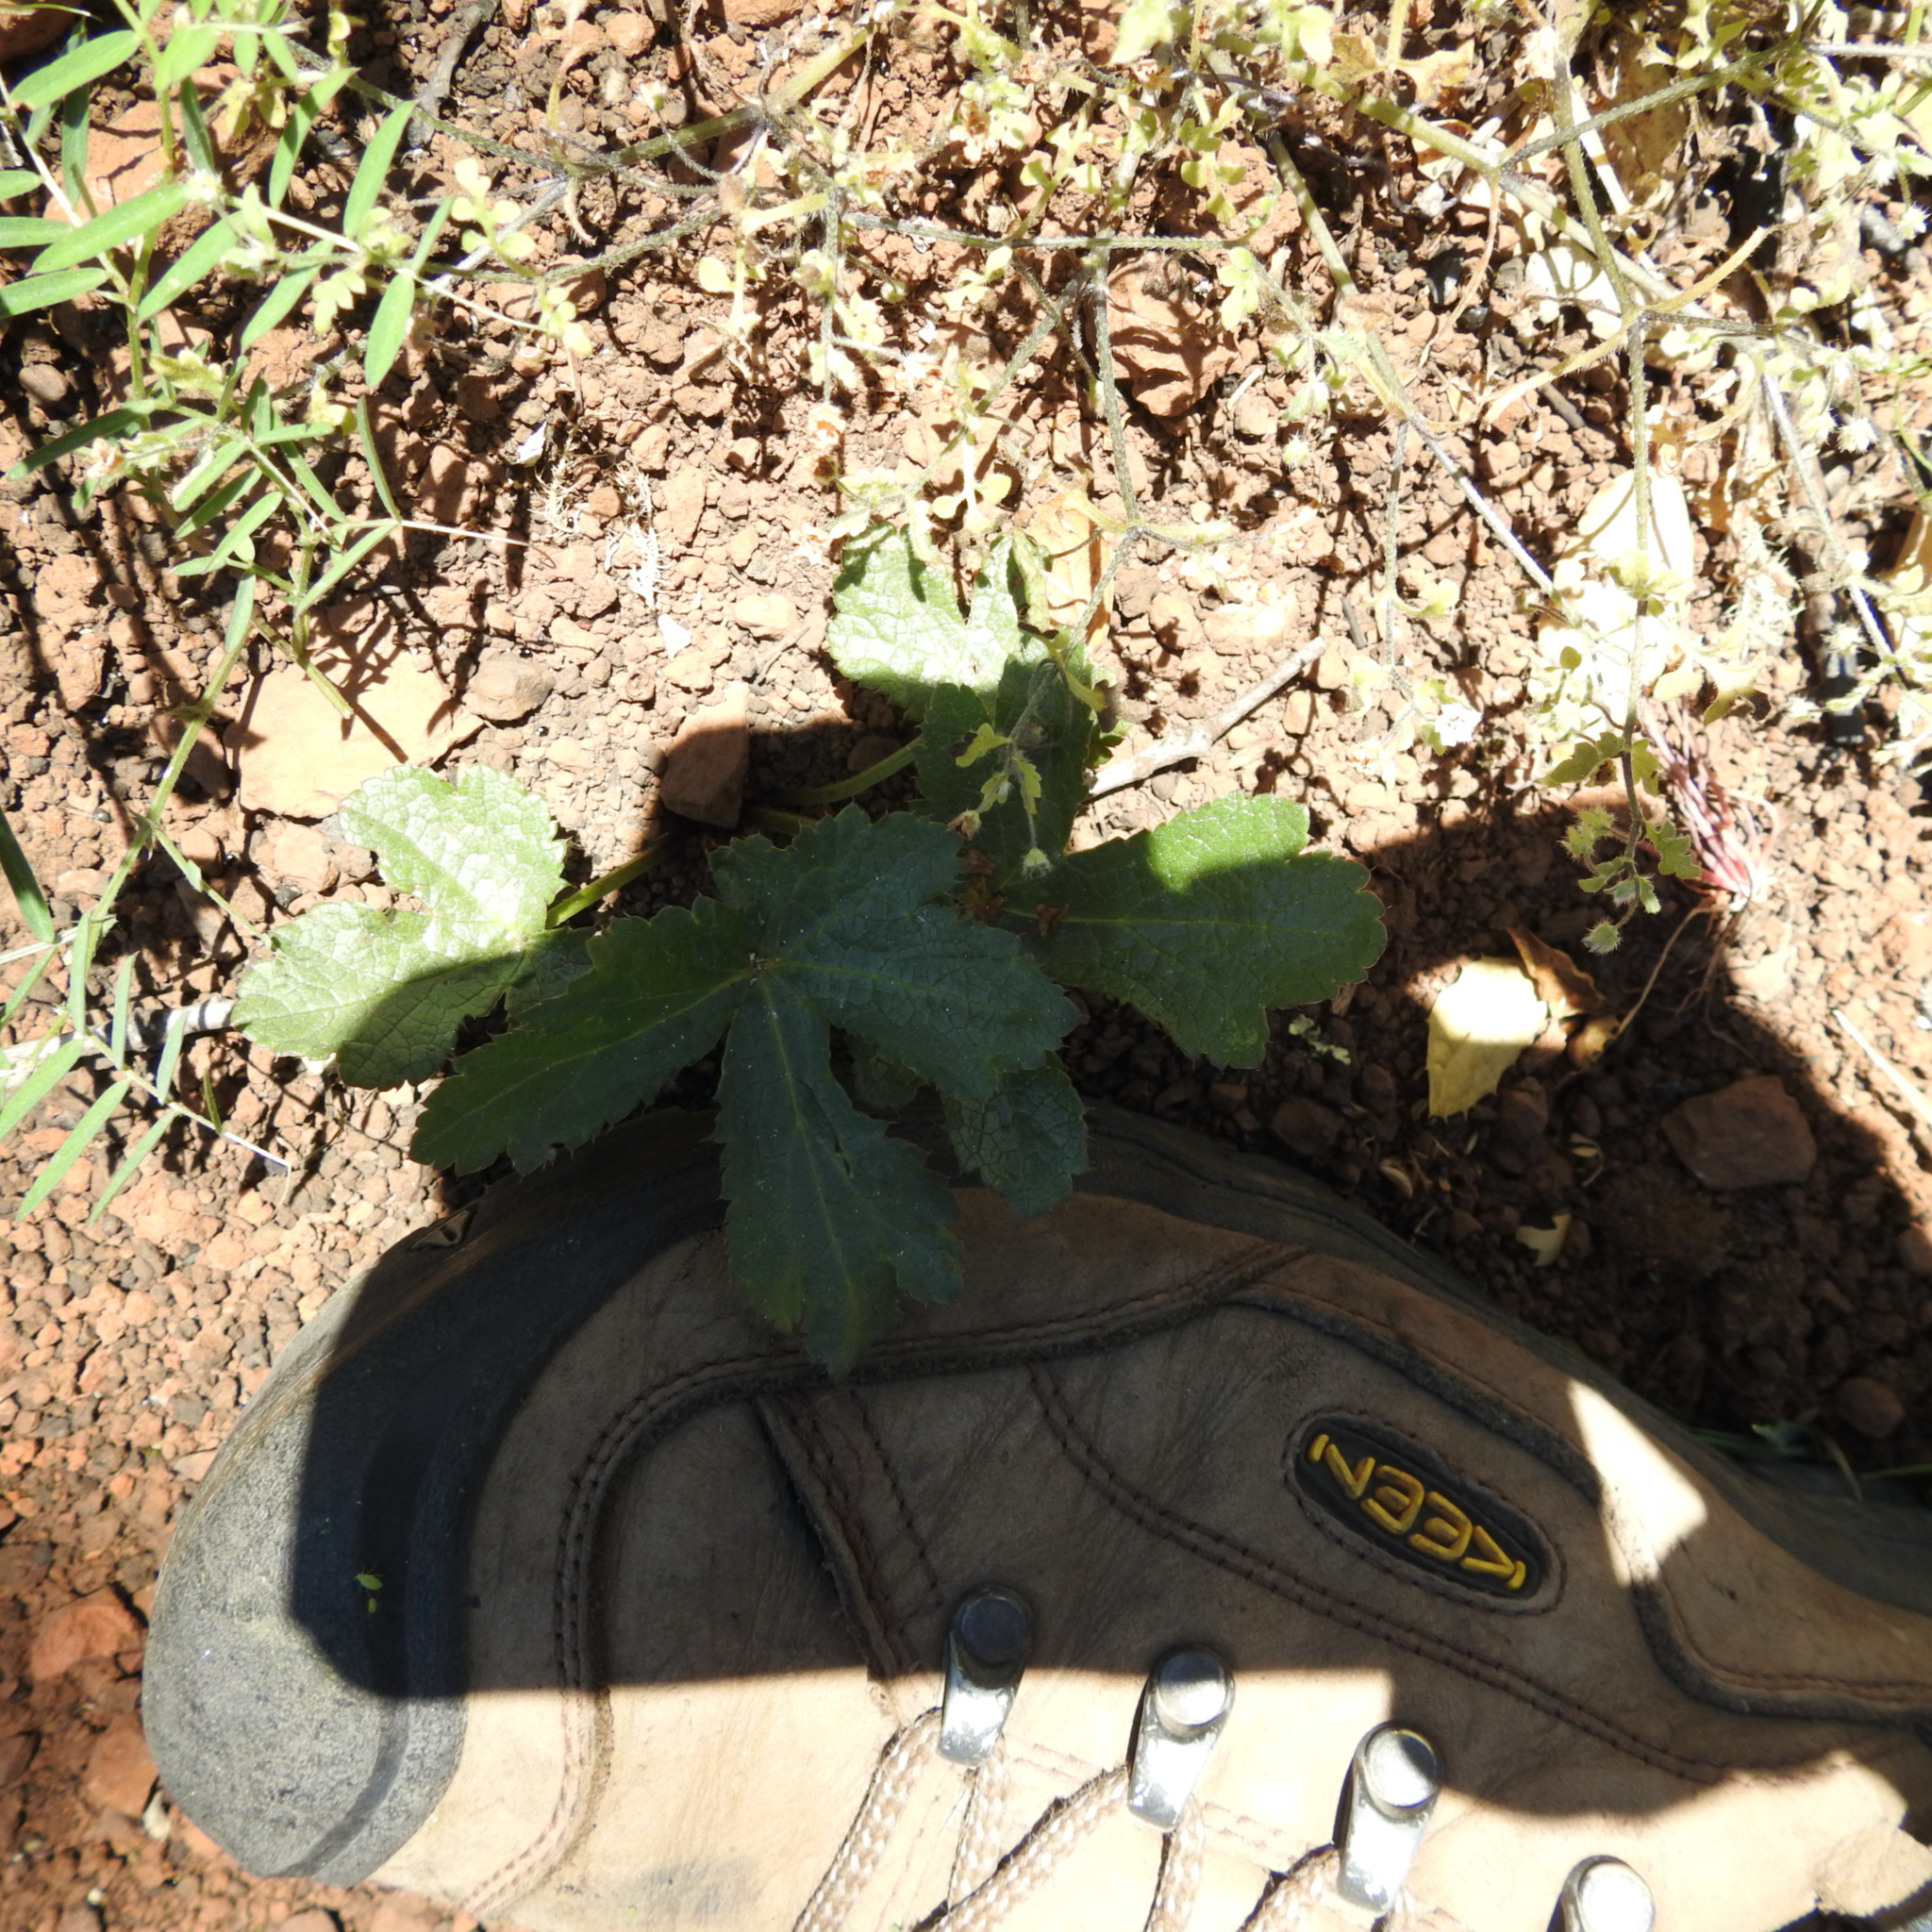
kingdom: Plantae
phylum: Tracheophyta
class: Magnoliopsida
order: Apiales
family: Apiaceae
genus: Sanicula
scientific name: Sanicula crassicaulis
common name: Western snakeroot
